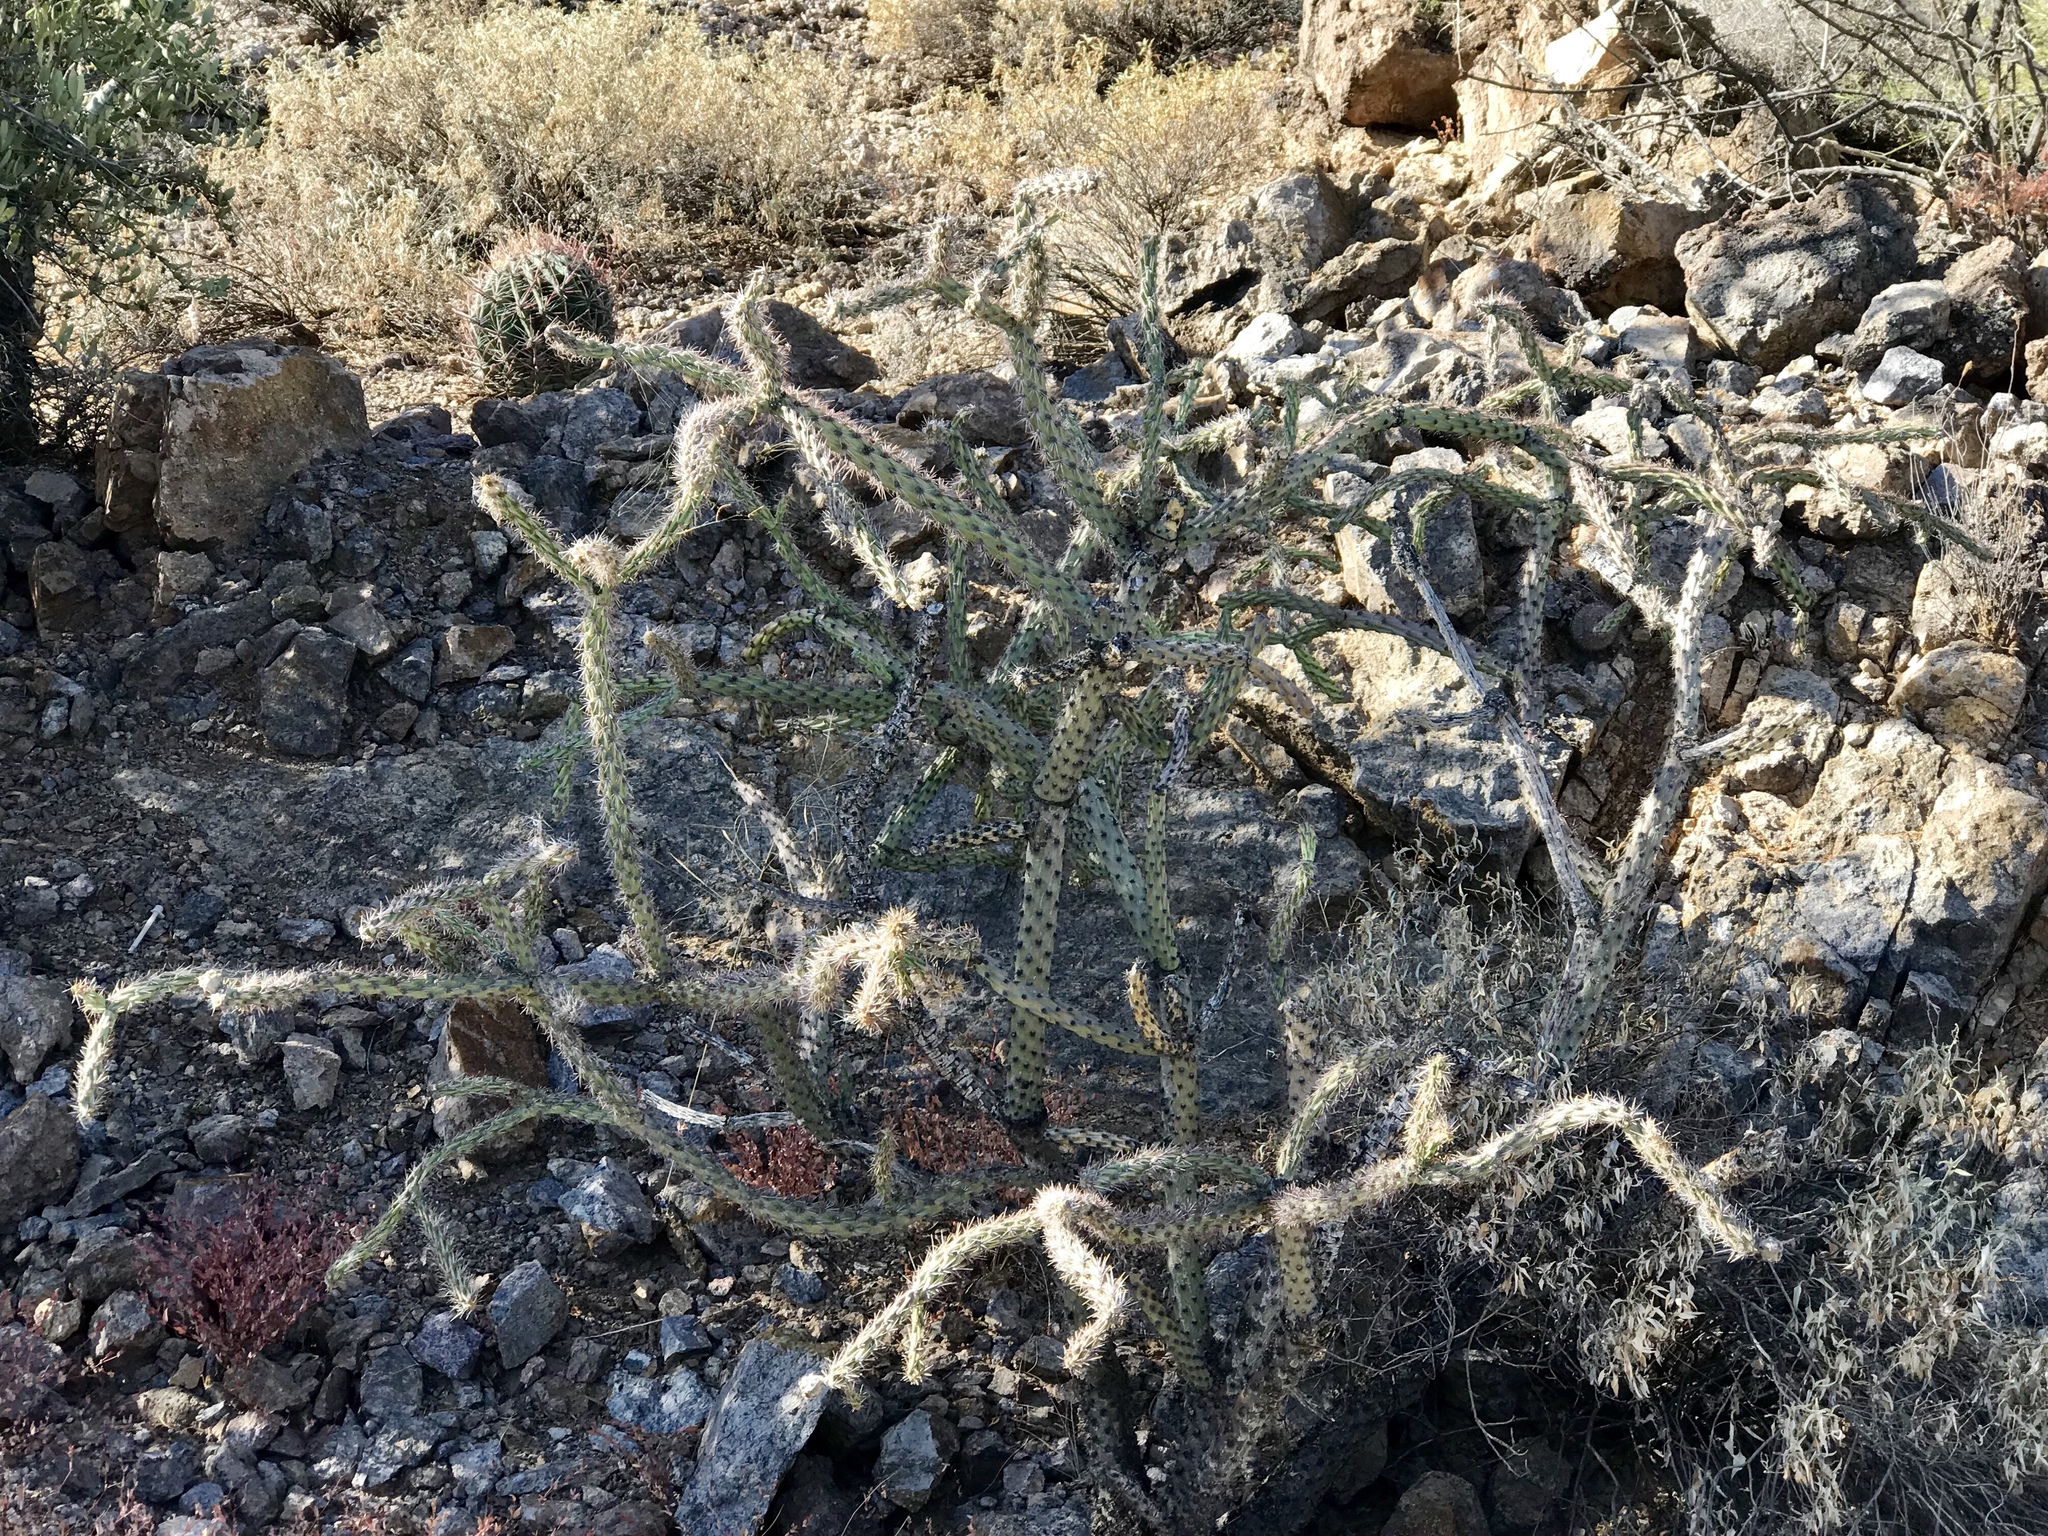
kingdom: Plantae
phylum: Tracheophyta
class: Magnoliopsida
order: Caryophyllales
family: Cactaceae
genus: Cylindropuntia
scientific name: Cylindropuntia acanthocarpa
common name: Buckhorn cholla
